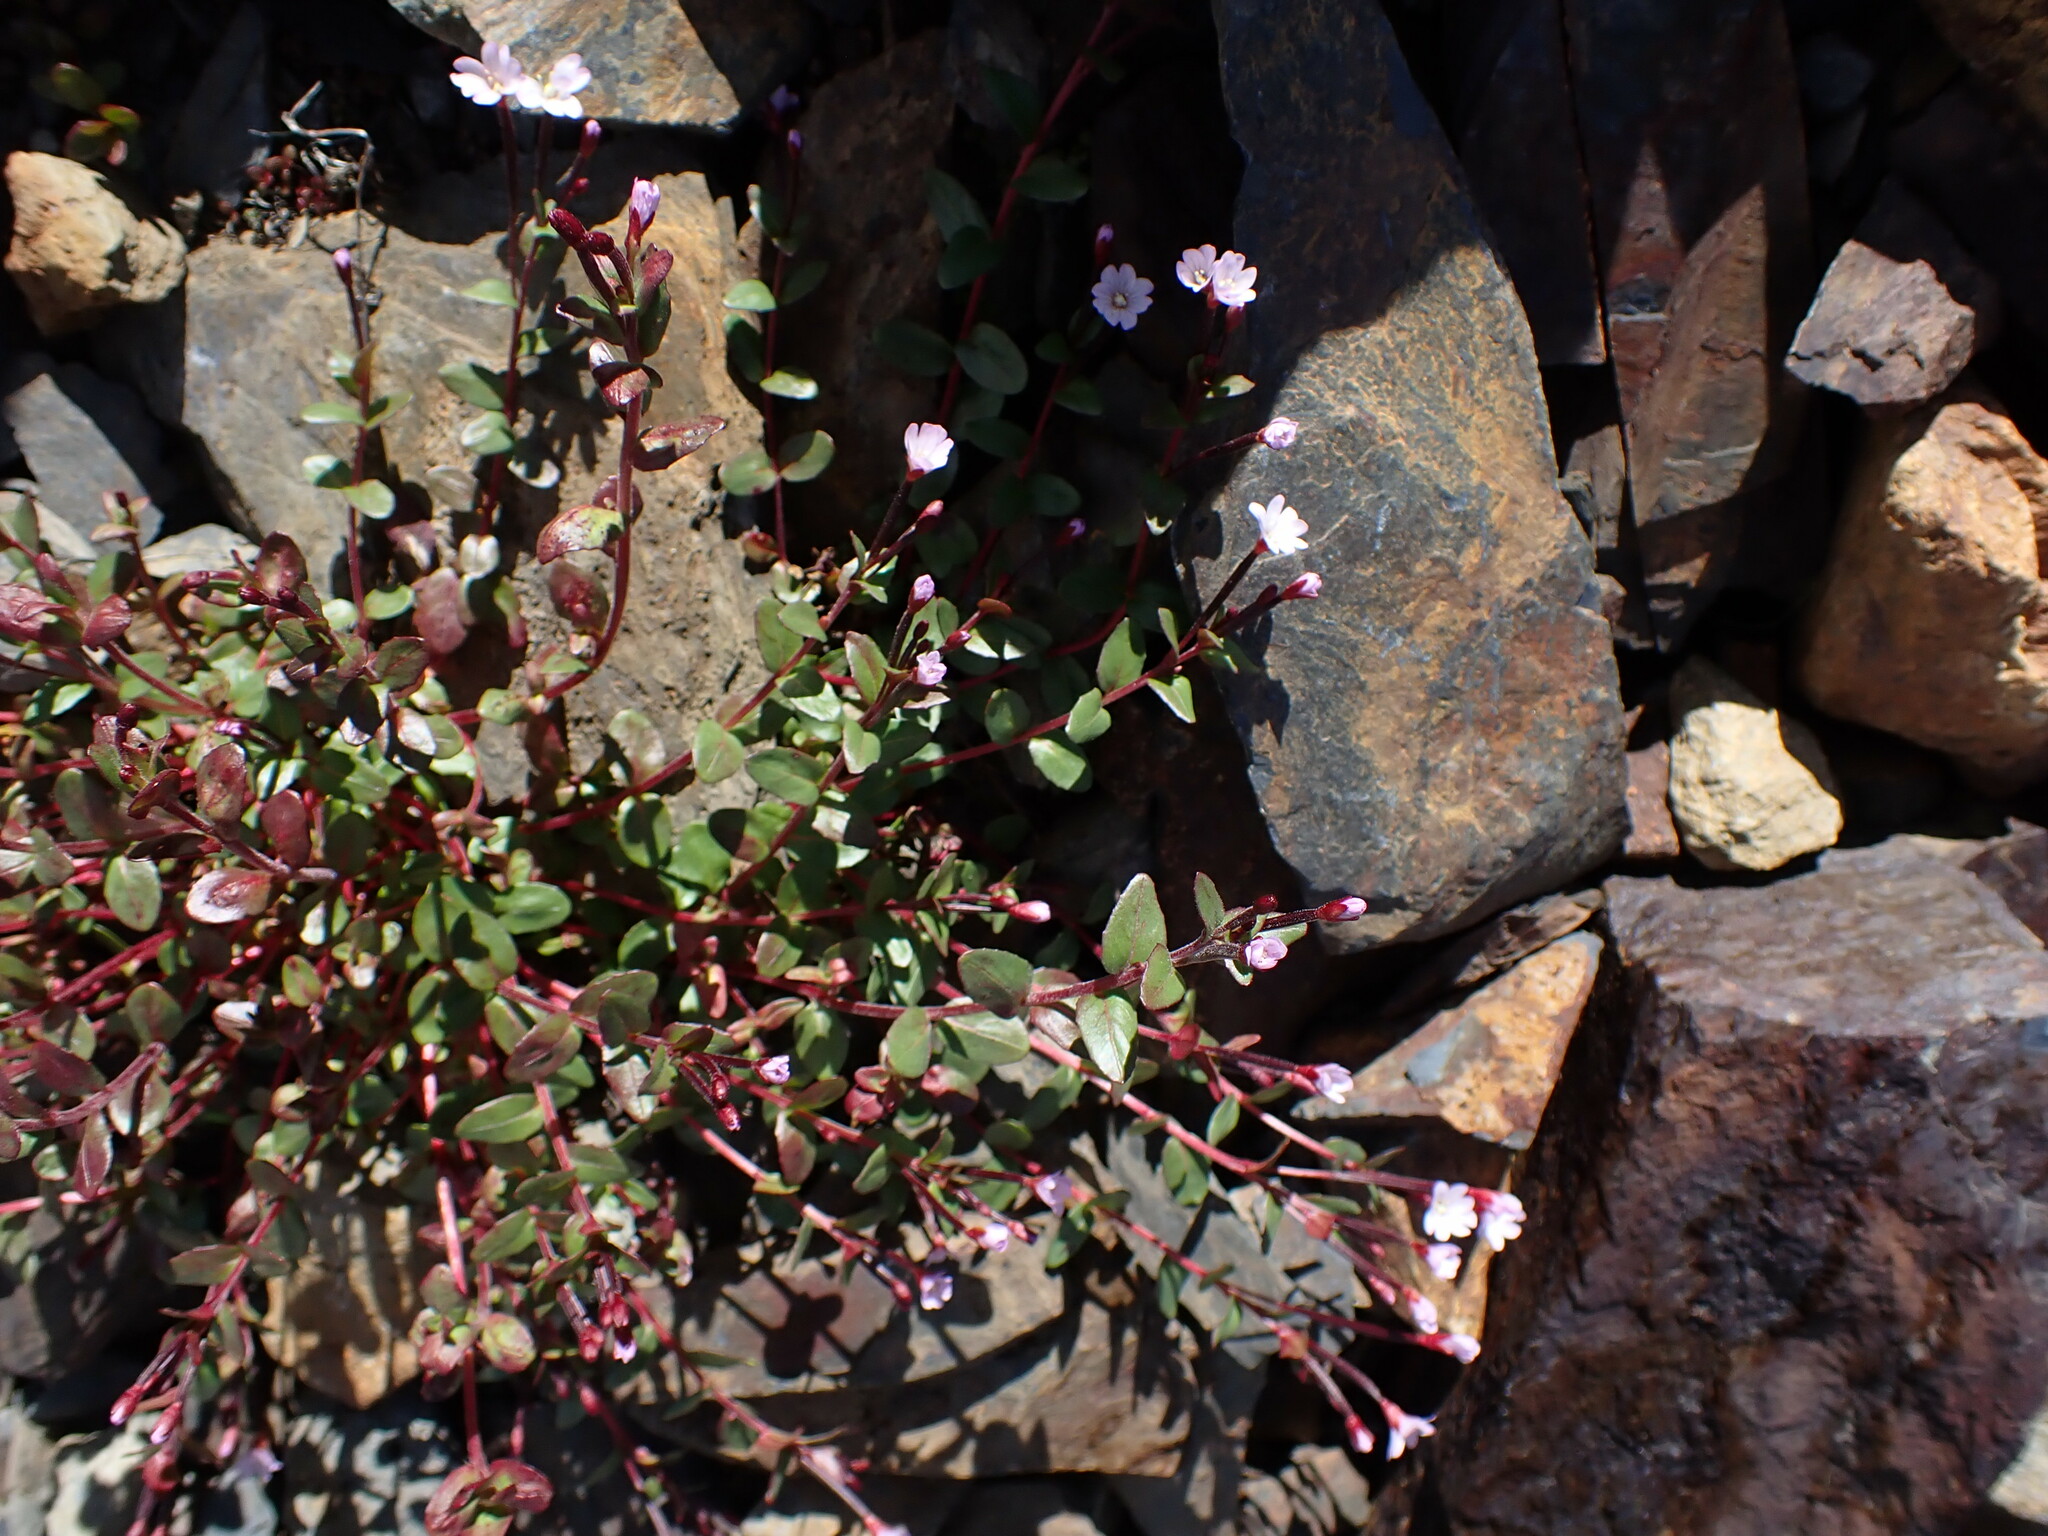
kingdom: Plantae
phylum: Tracheophyta
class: Magnoliopsida
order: Myrtales
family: Onagraceae
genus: Epilobium
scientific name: Epilobium anagallidifolium
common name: Alpine willowherb
